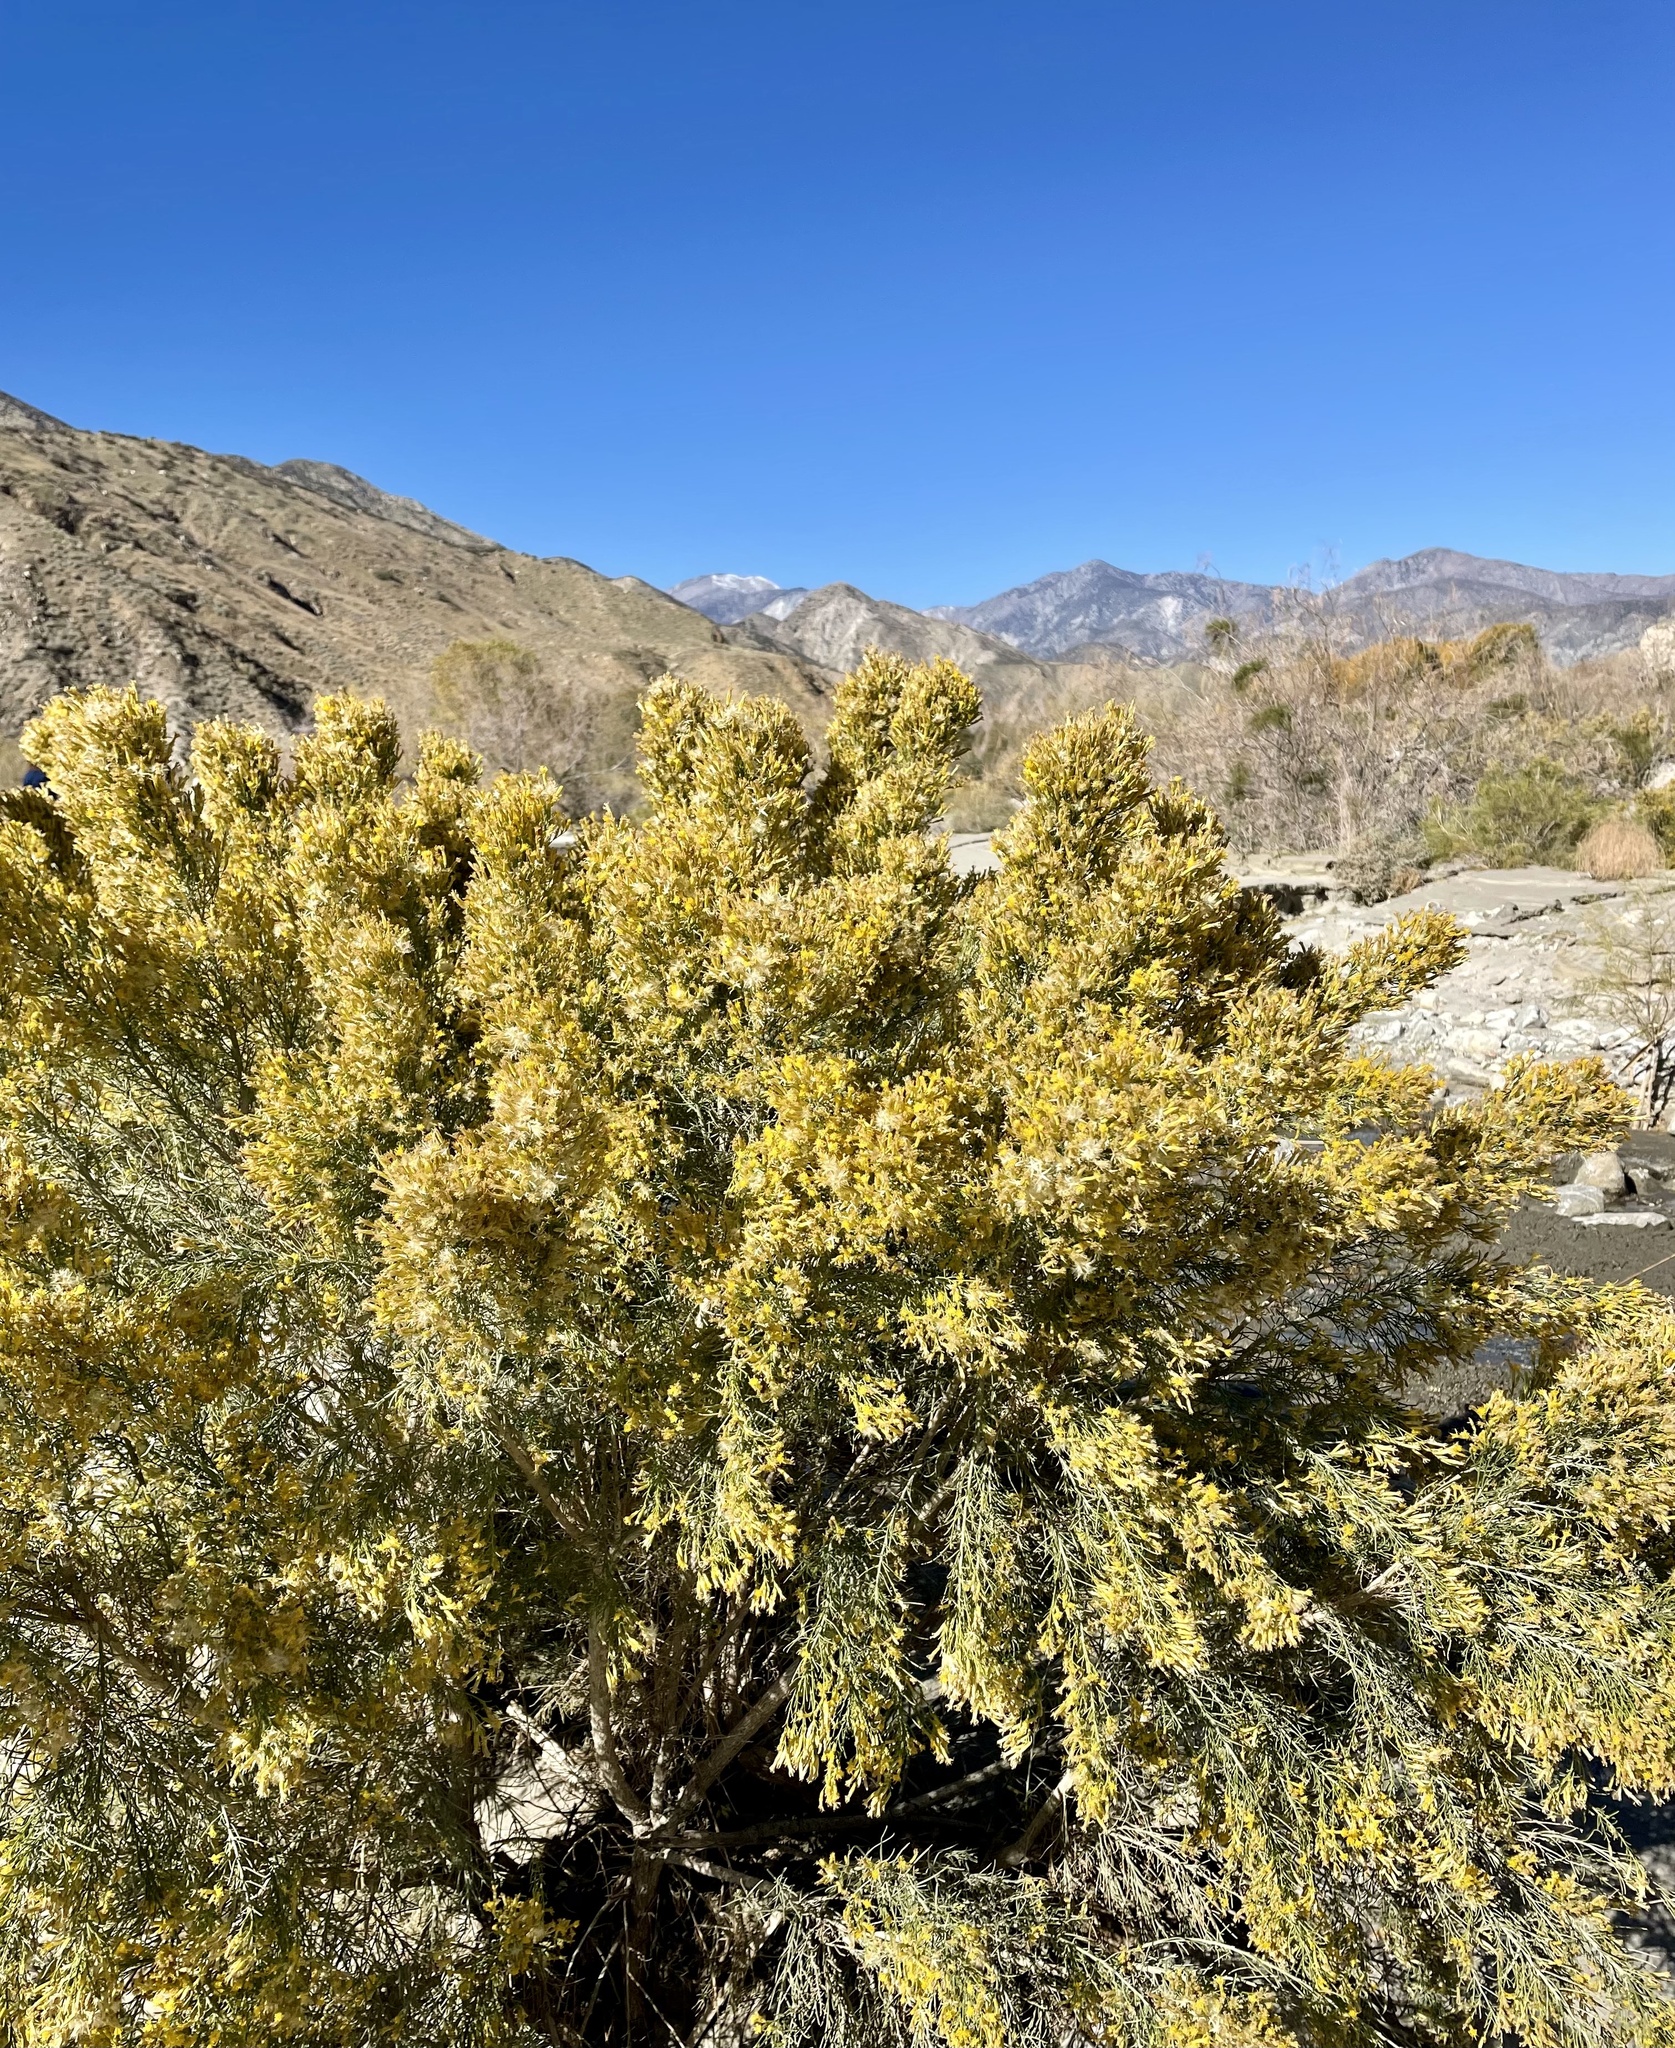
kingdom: Plantae
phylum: Tracheophyta
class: Magnoliopsida
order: Asterales
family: Asteraceae
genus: Ericameria
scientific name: Ericameria paniculata
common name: Punctate rabbitbrush
